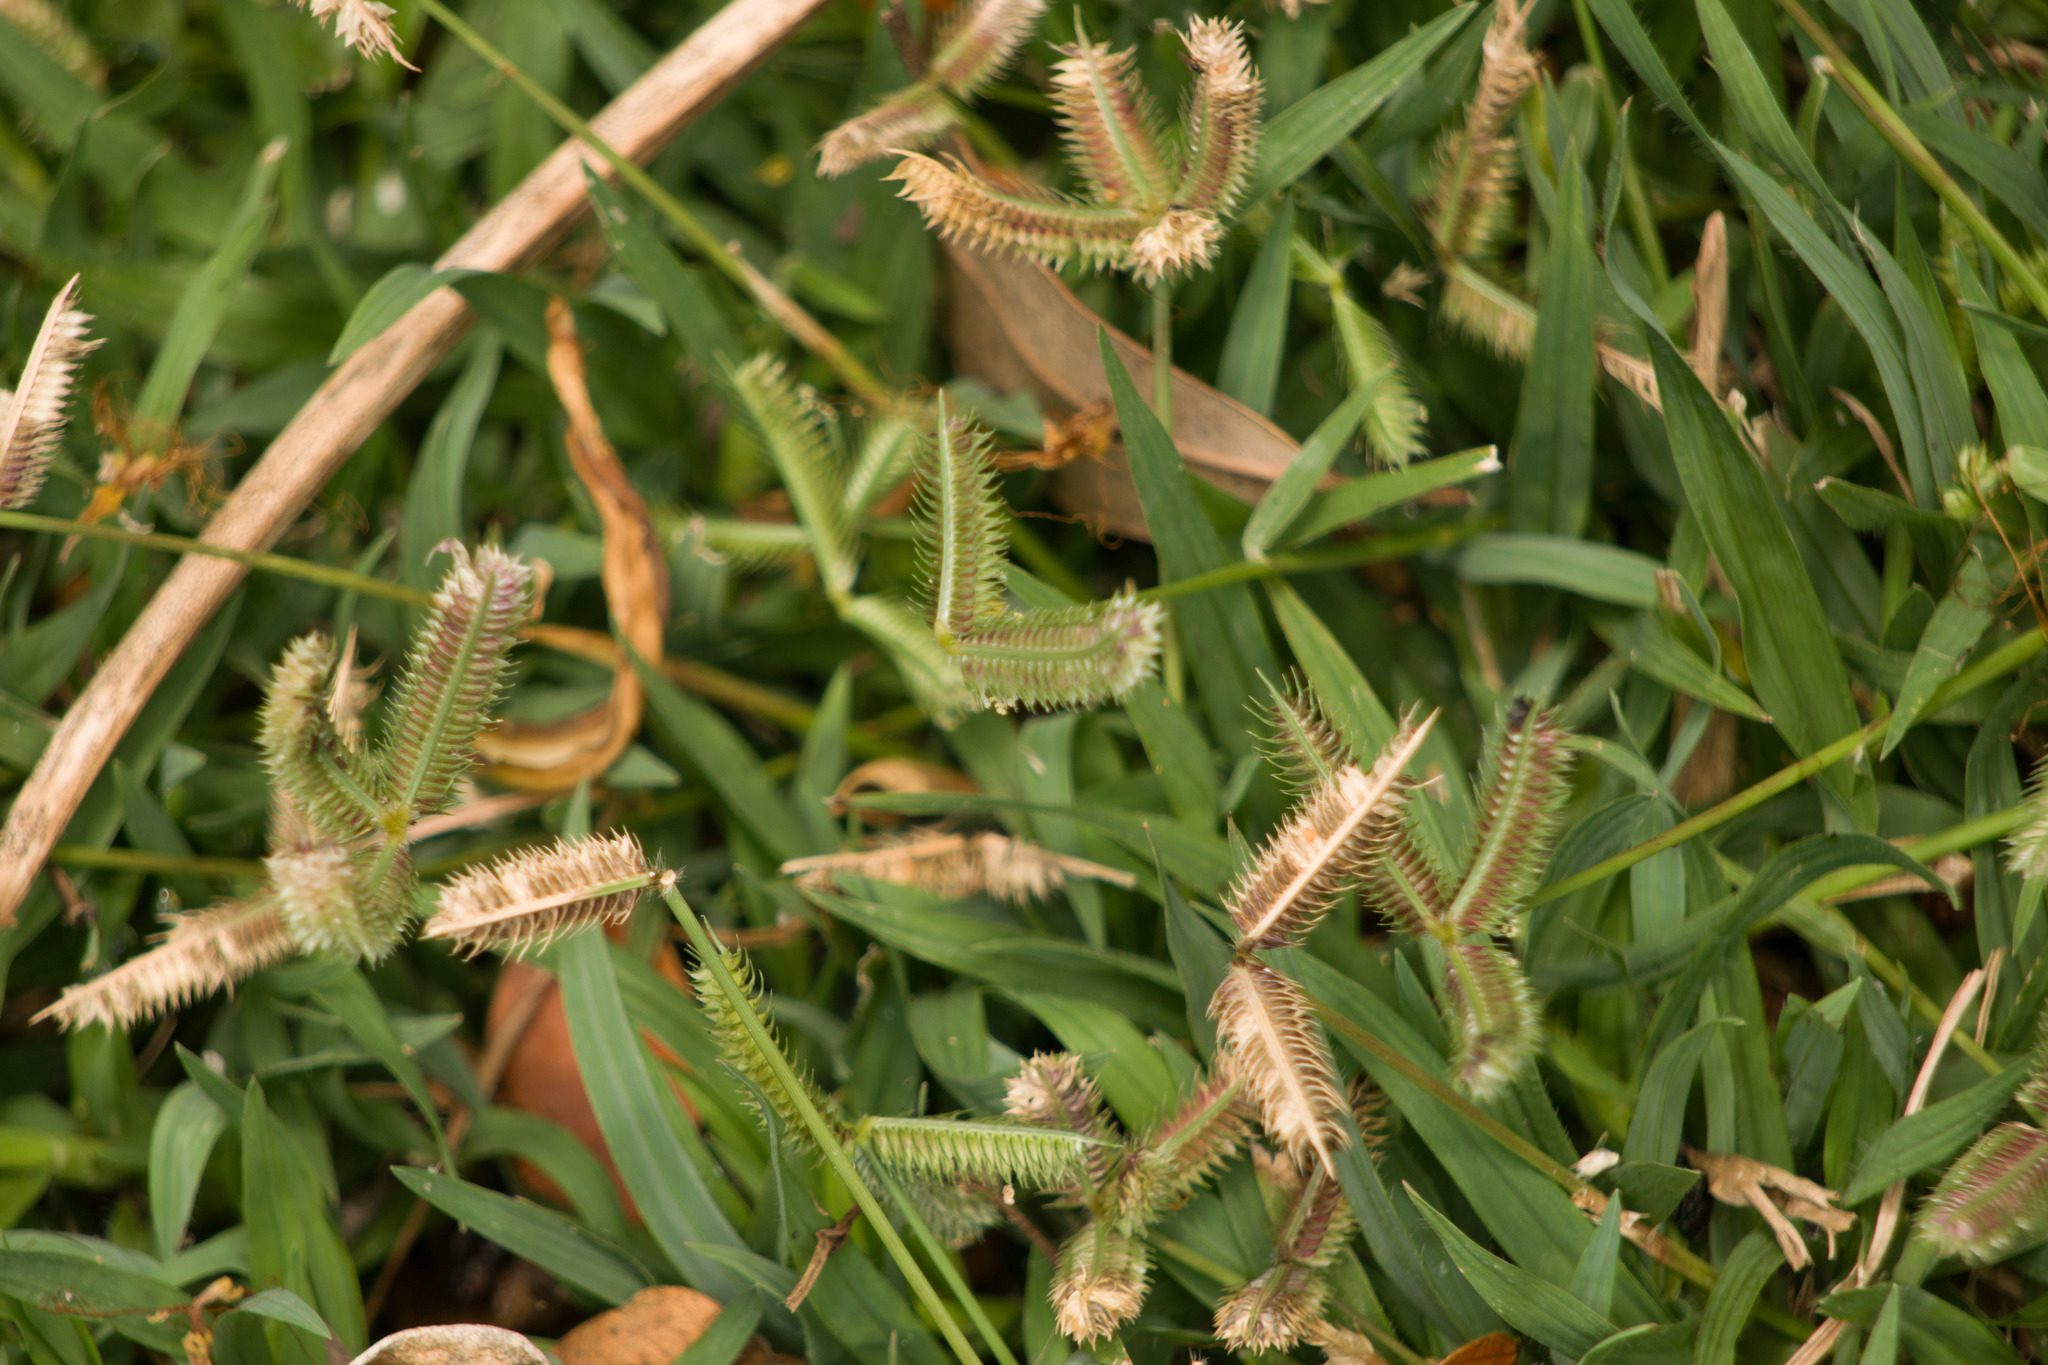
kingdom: Plantae
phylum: Tracheophyta
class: Liliopsida
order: Poales
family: Poaceae
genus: Dactyloctenium
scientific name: Dactyloctenium aegyptium
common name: Egyptian grass
